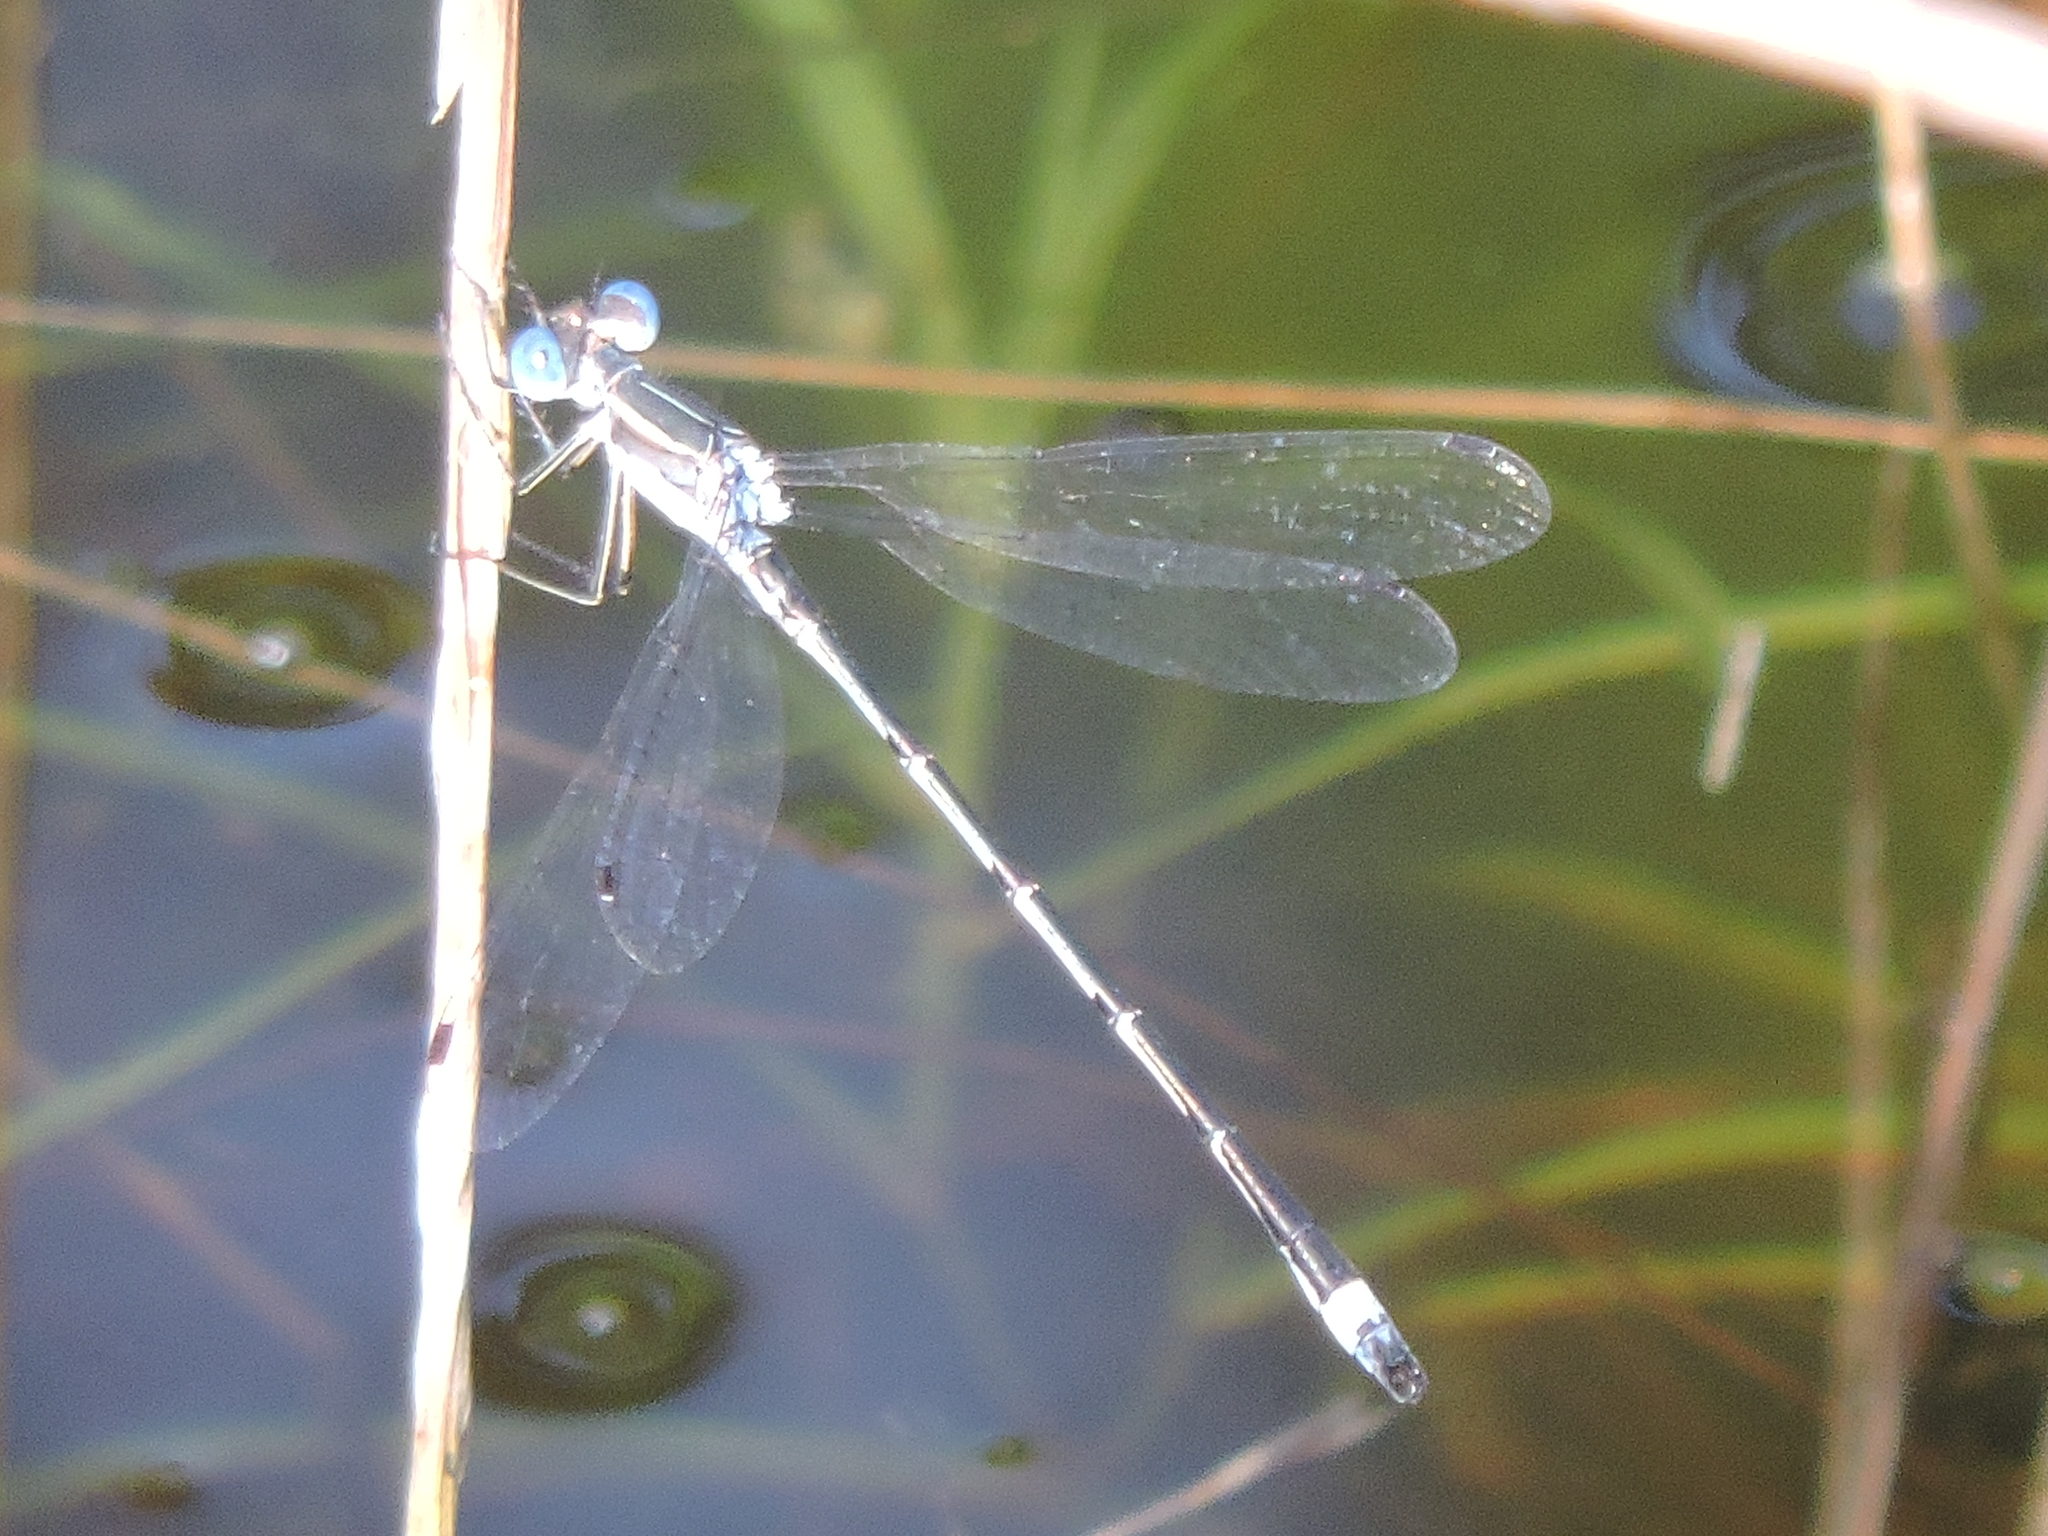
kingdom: Animalia
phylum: Arthropoda
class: Insecta
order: Odonata
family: Lestidae
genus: Lestes
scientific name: Lestes australis
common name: Southern spreadwing
